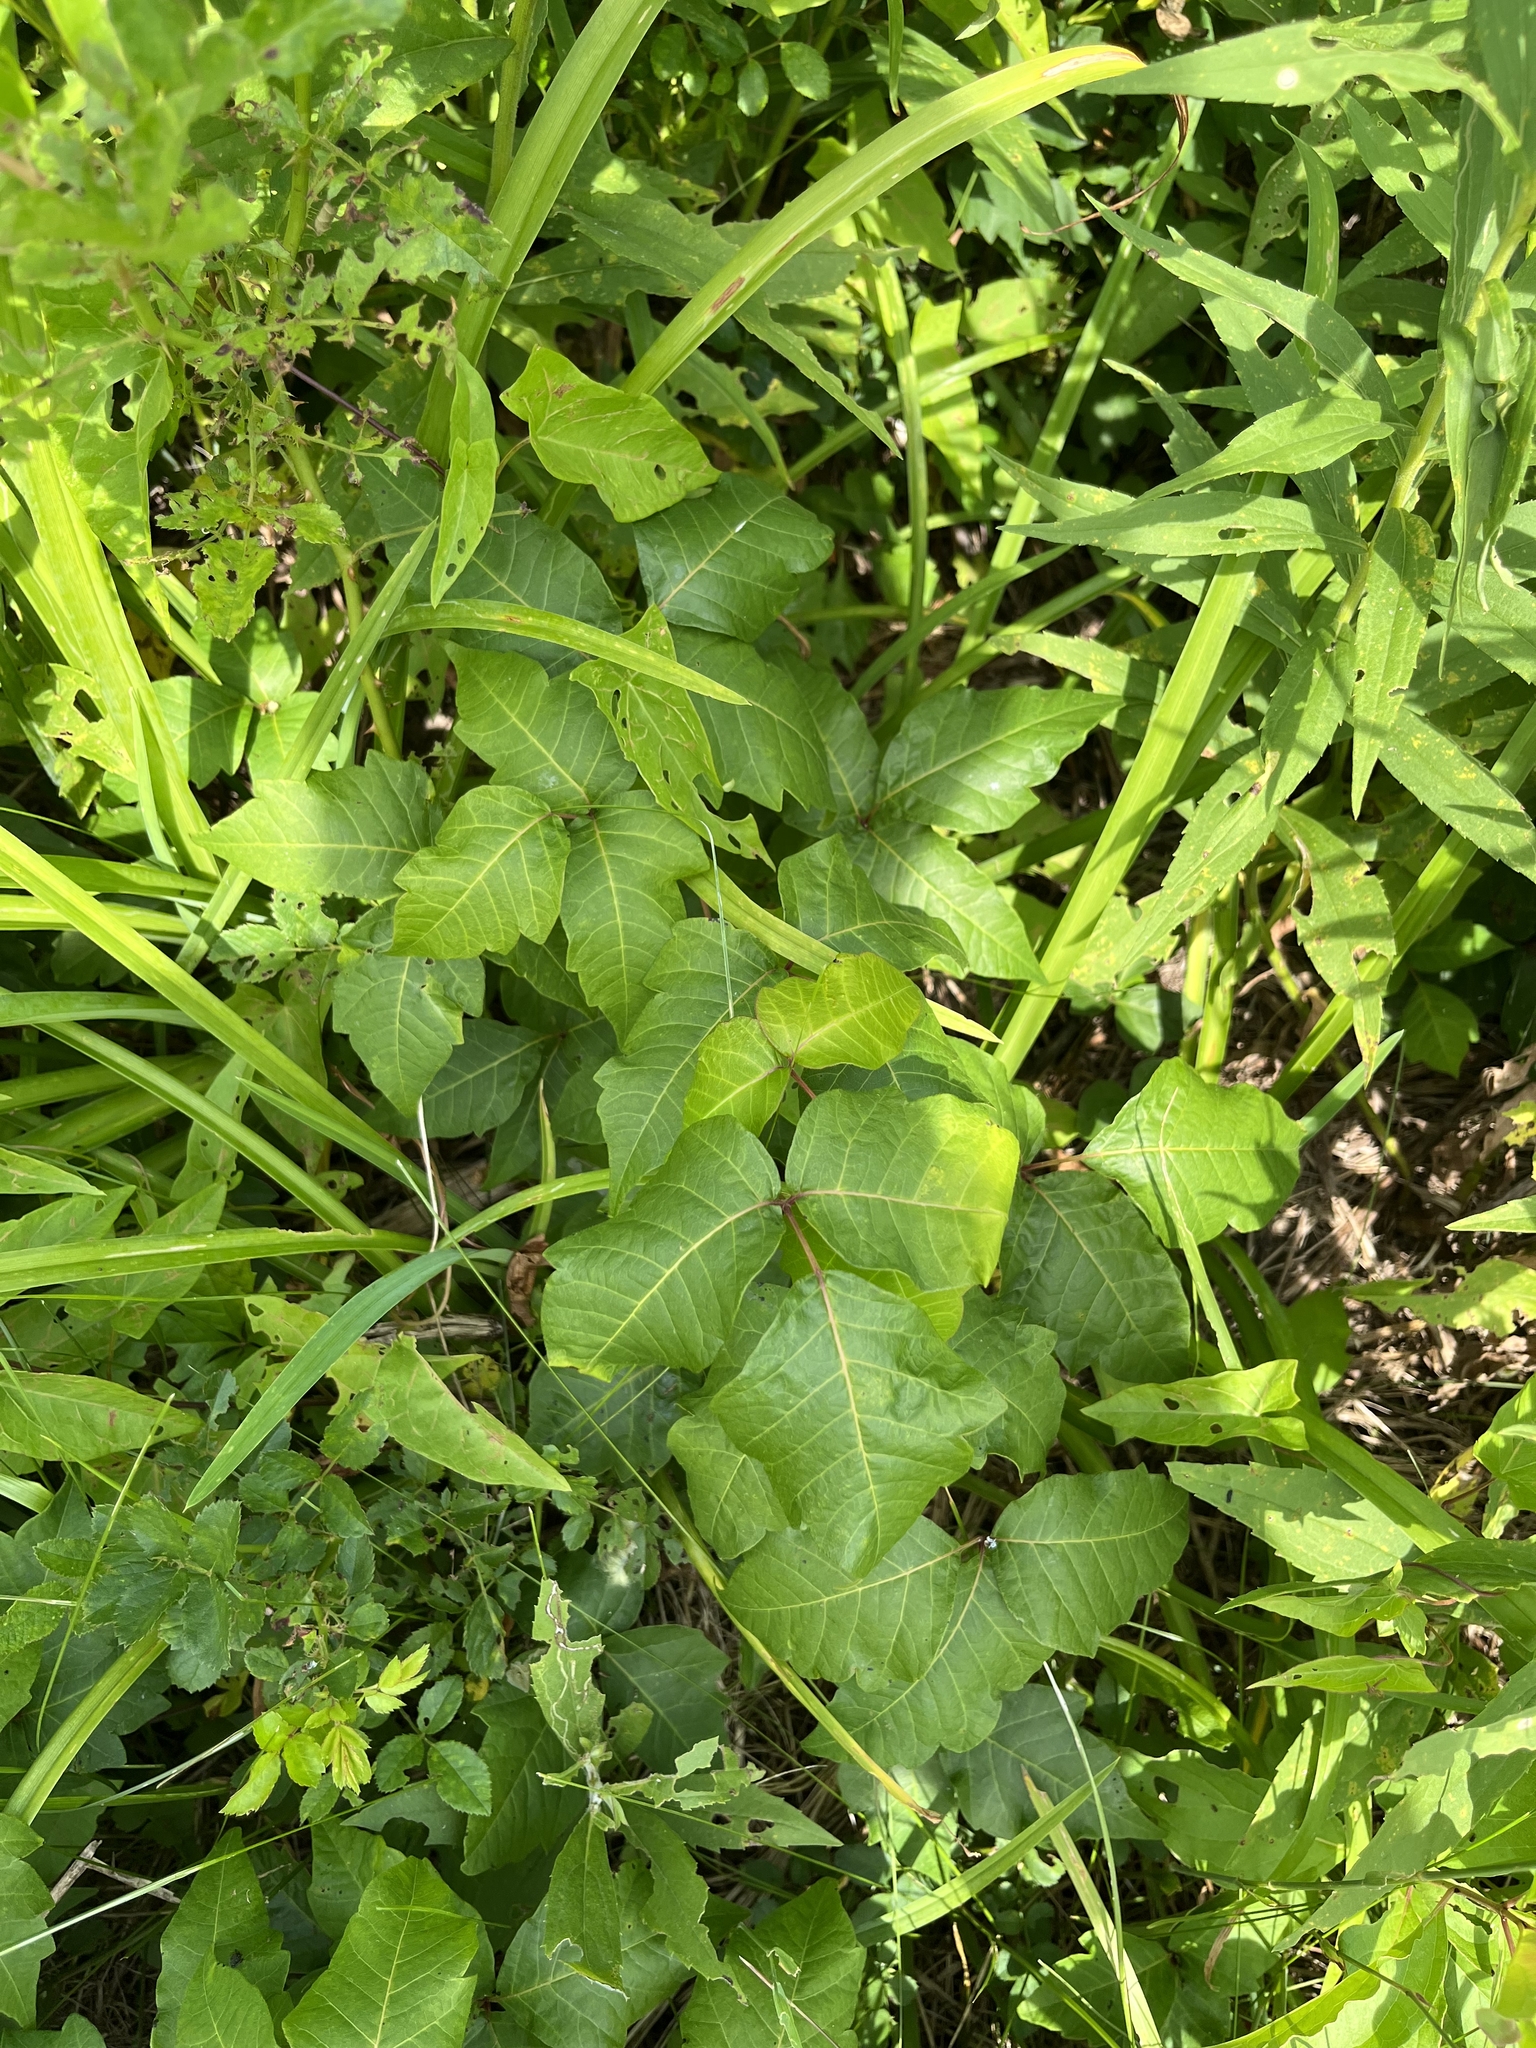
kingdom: Plantae
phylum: Tracheophyta
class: Magnoliopsida
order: Sapindales
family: Anacardiaceae
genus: Toxicodendron
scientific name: Toxicodendron radicans
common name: Poison ivy
